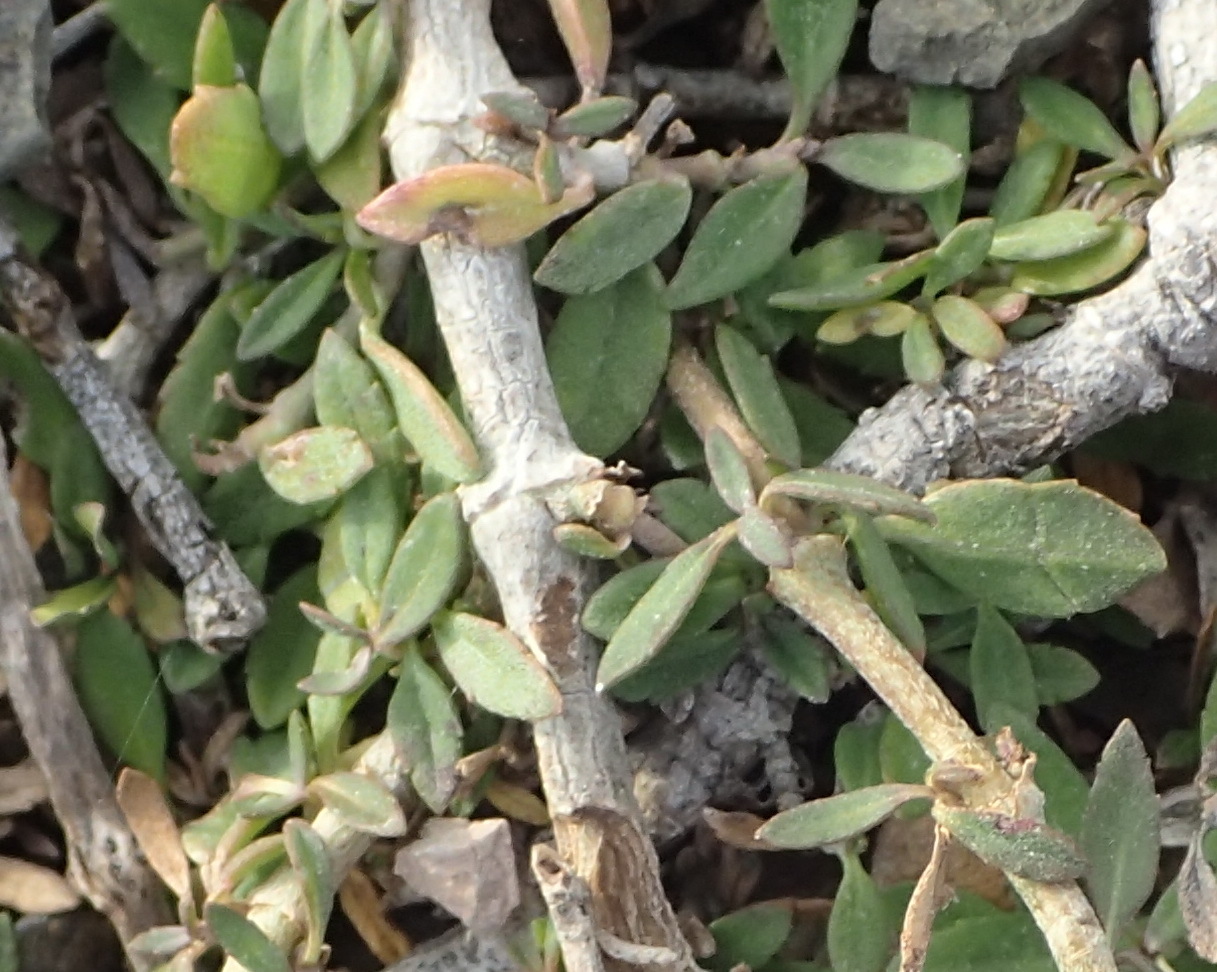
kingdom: Plantae
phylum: Tracheophyta
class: Magnoliopsida
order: Lamiales
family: Verbenaceae
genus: Phyla
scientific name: Phyla nodiflora
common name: Frogfruit
